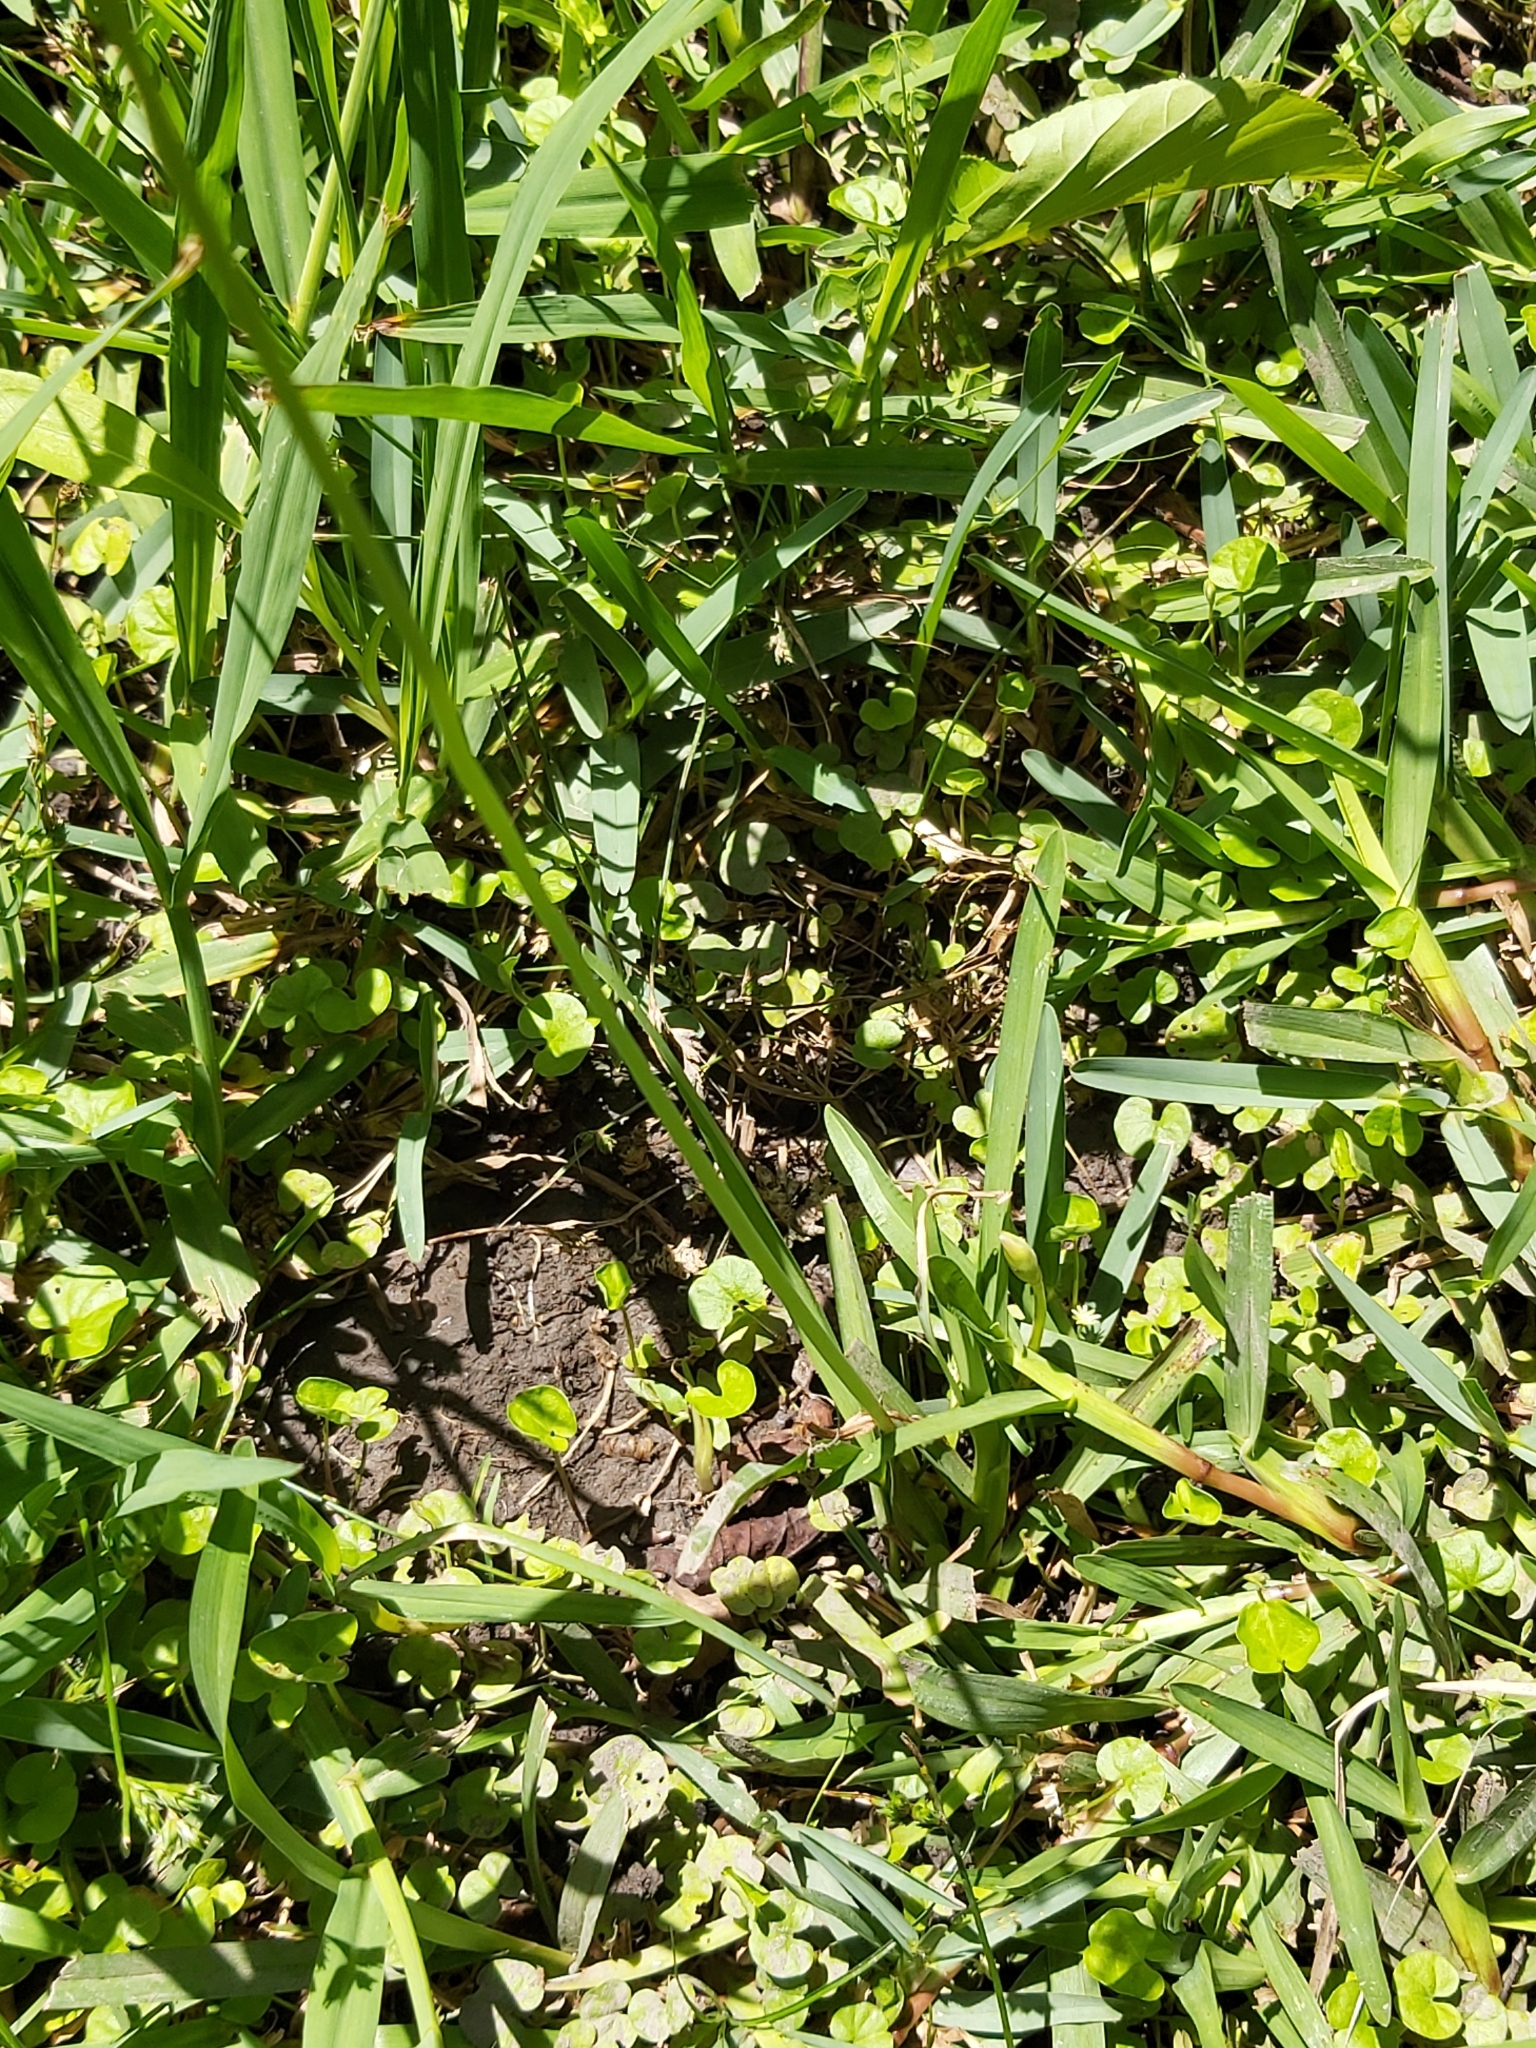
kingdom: Plantae
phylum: Tracheophyta
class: Liliopsida
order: Asparagales
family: Amaryllidaceae
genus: Nothoscordum
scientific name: Nothoscordum gracile
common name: Slender false garlic
